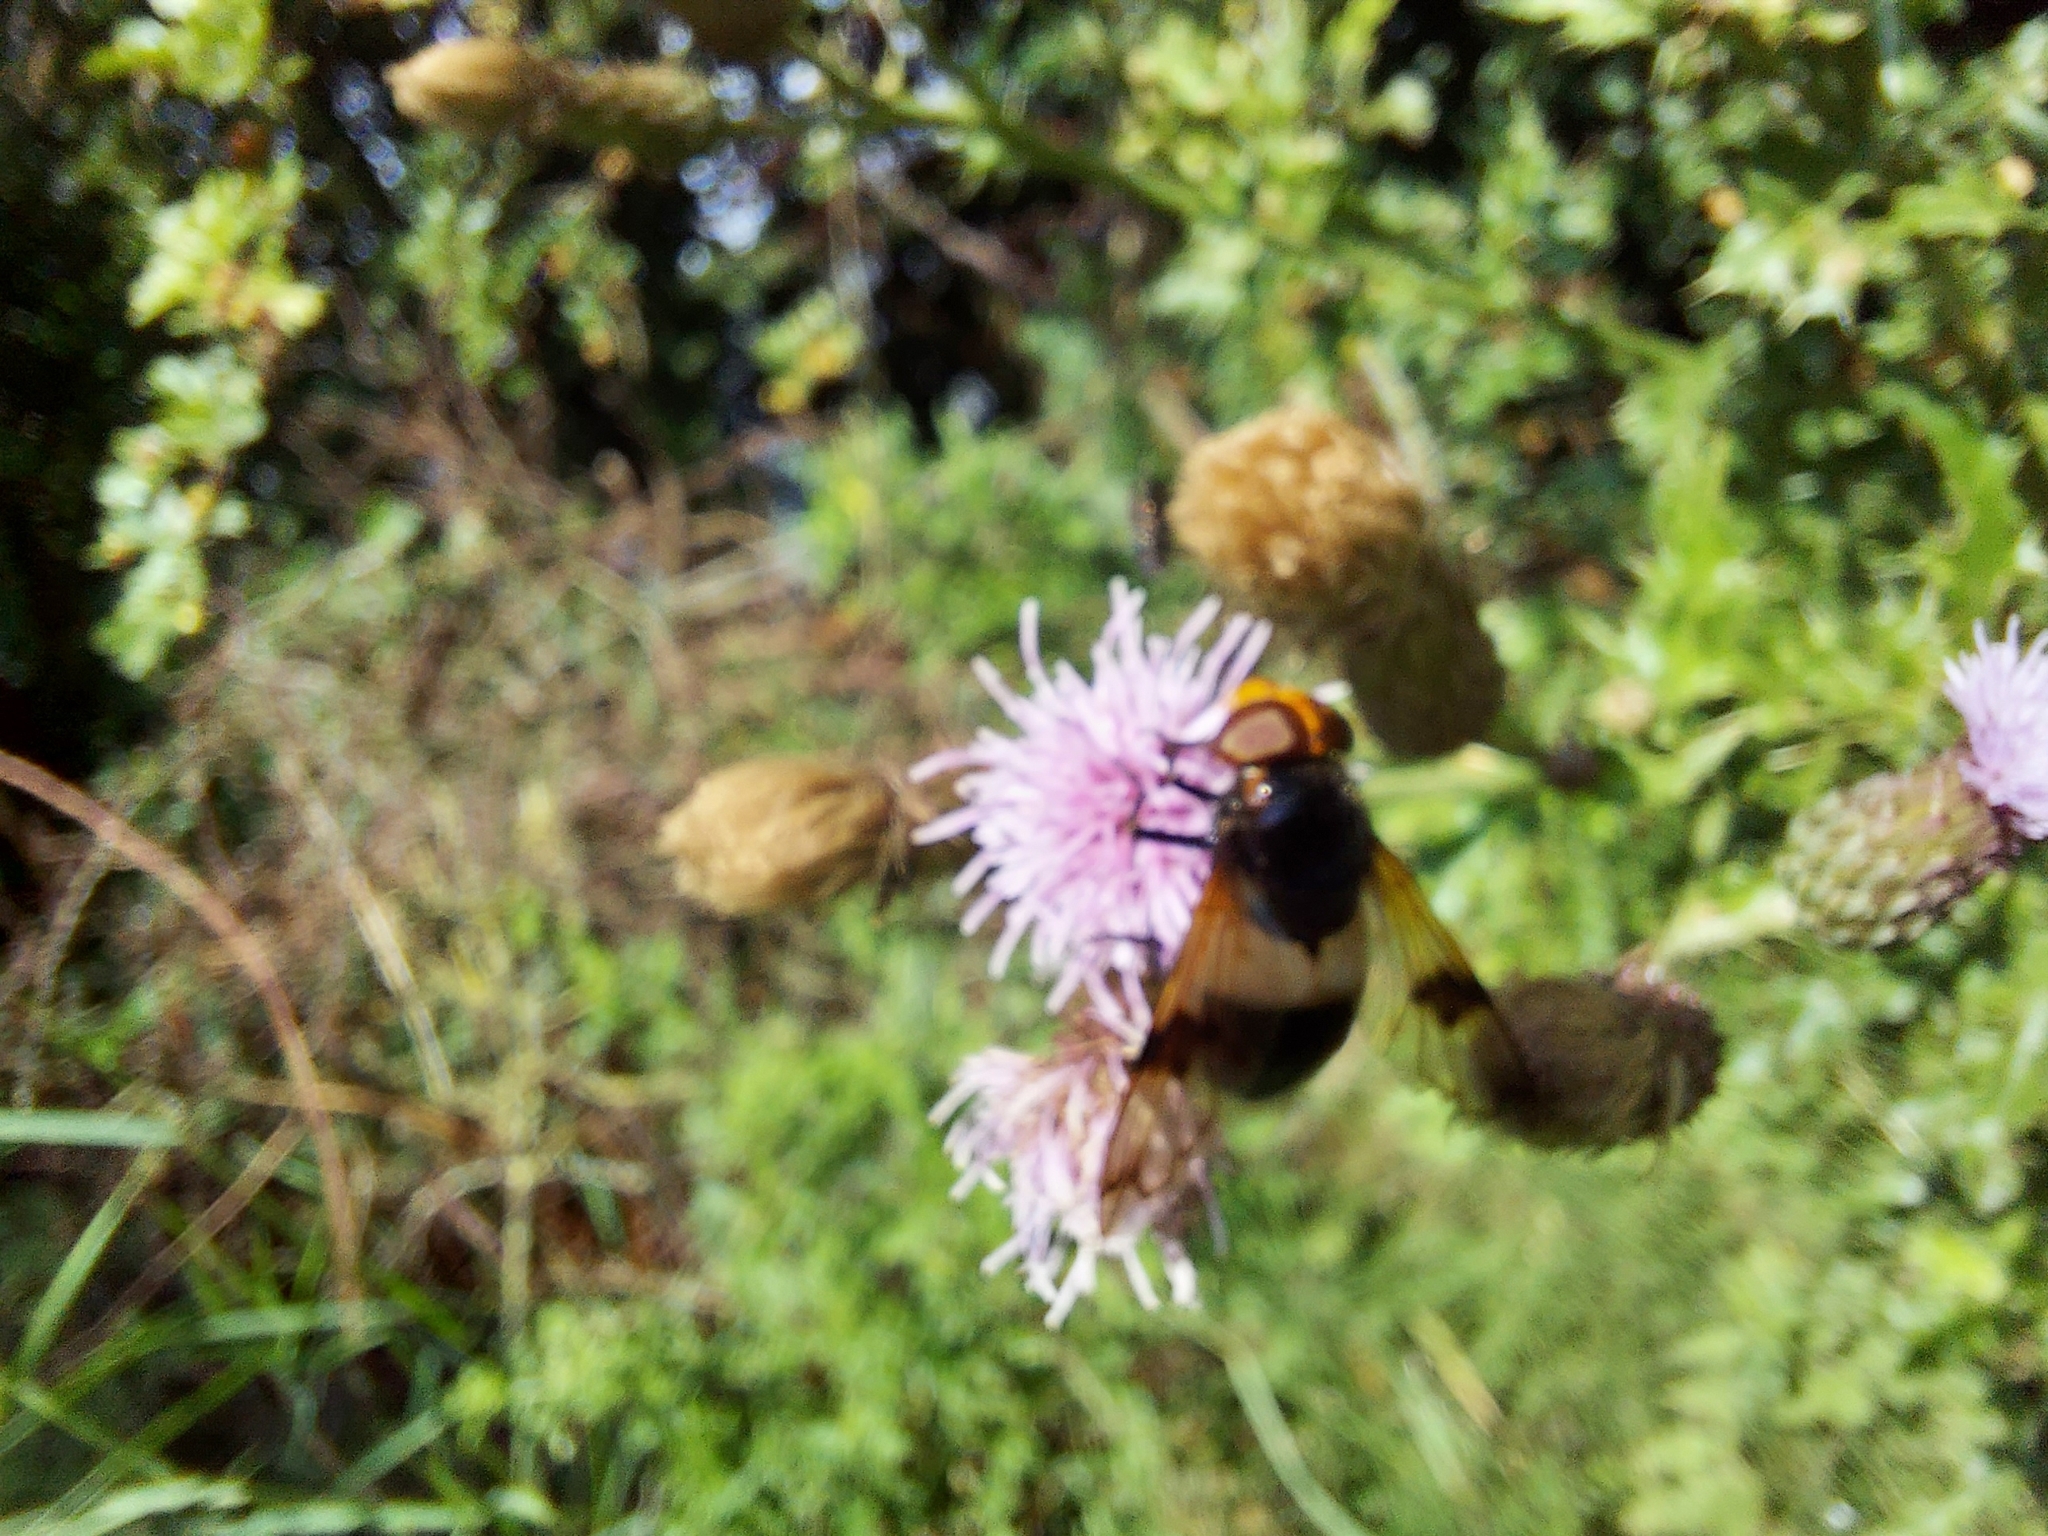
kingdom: Animalia
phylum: Arthropoda
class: Insecta
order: Diptera
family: Syrphidae
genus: Volucella
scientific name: Volucella pellucens
